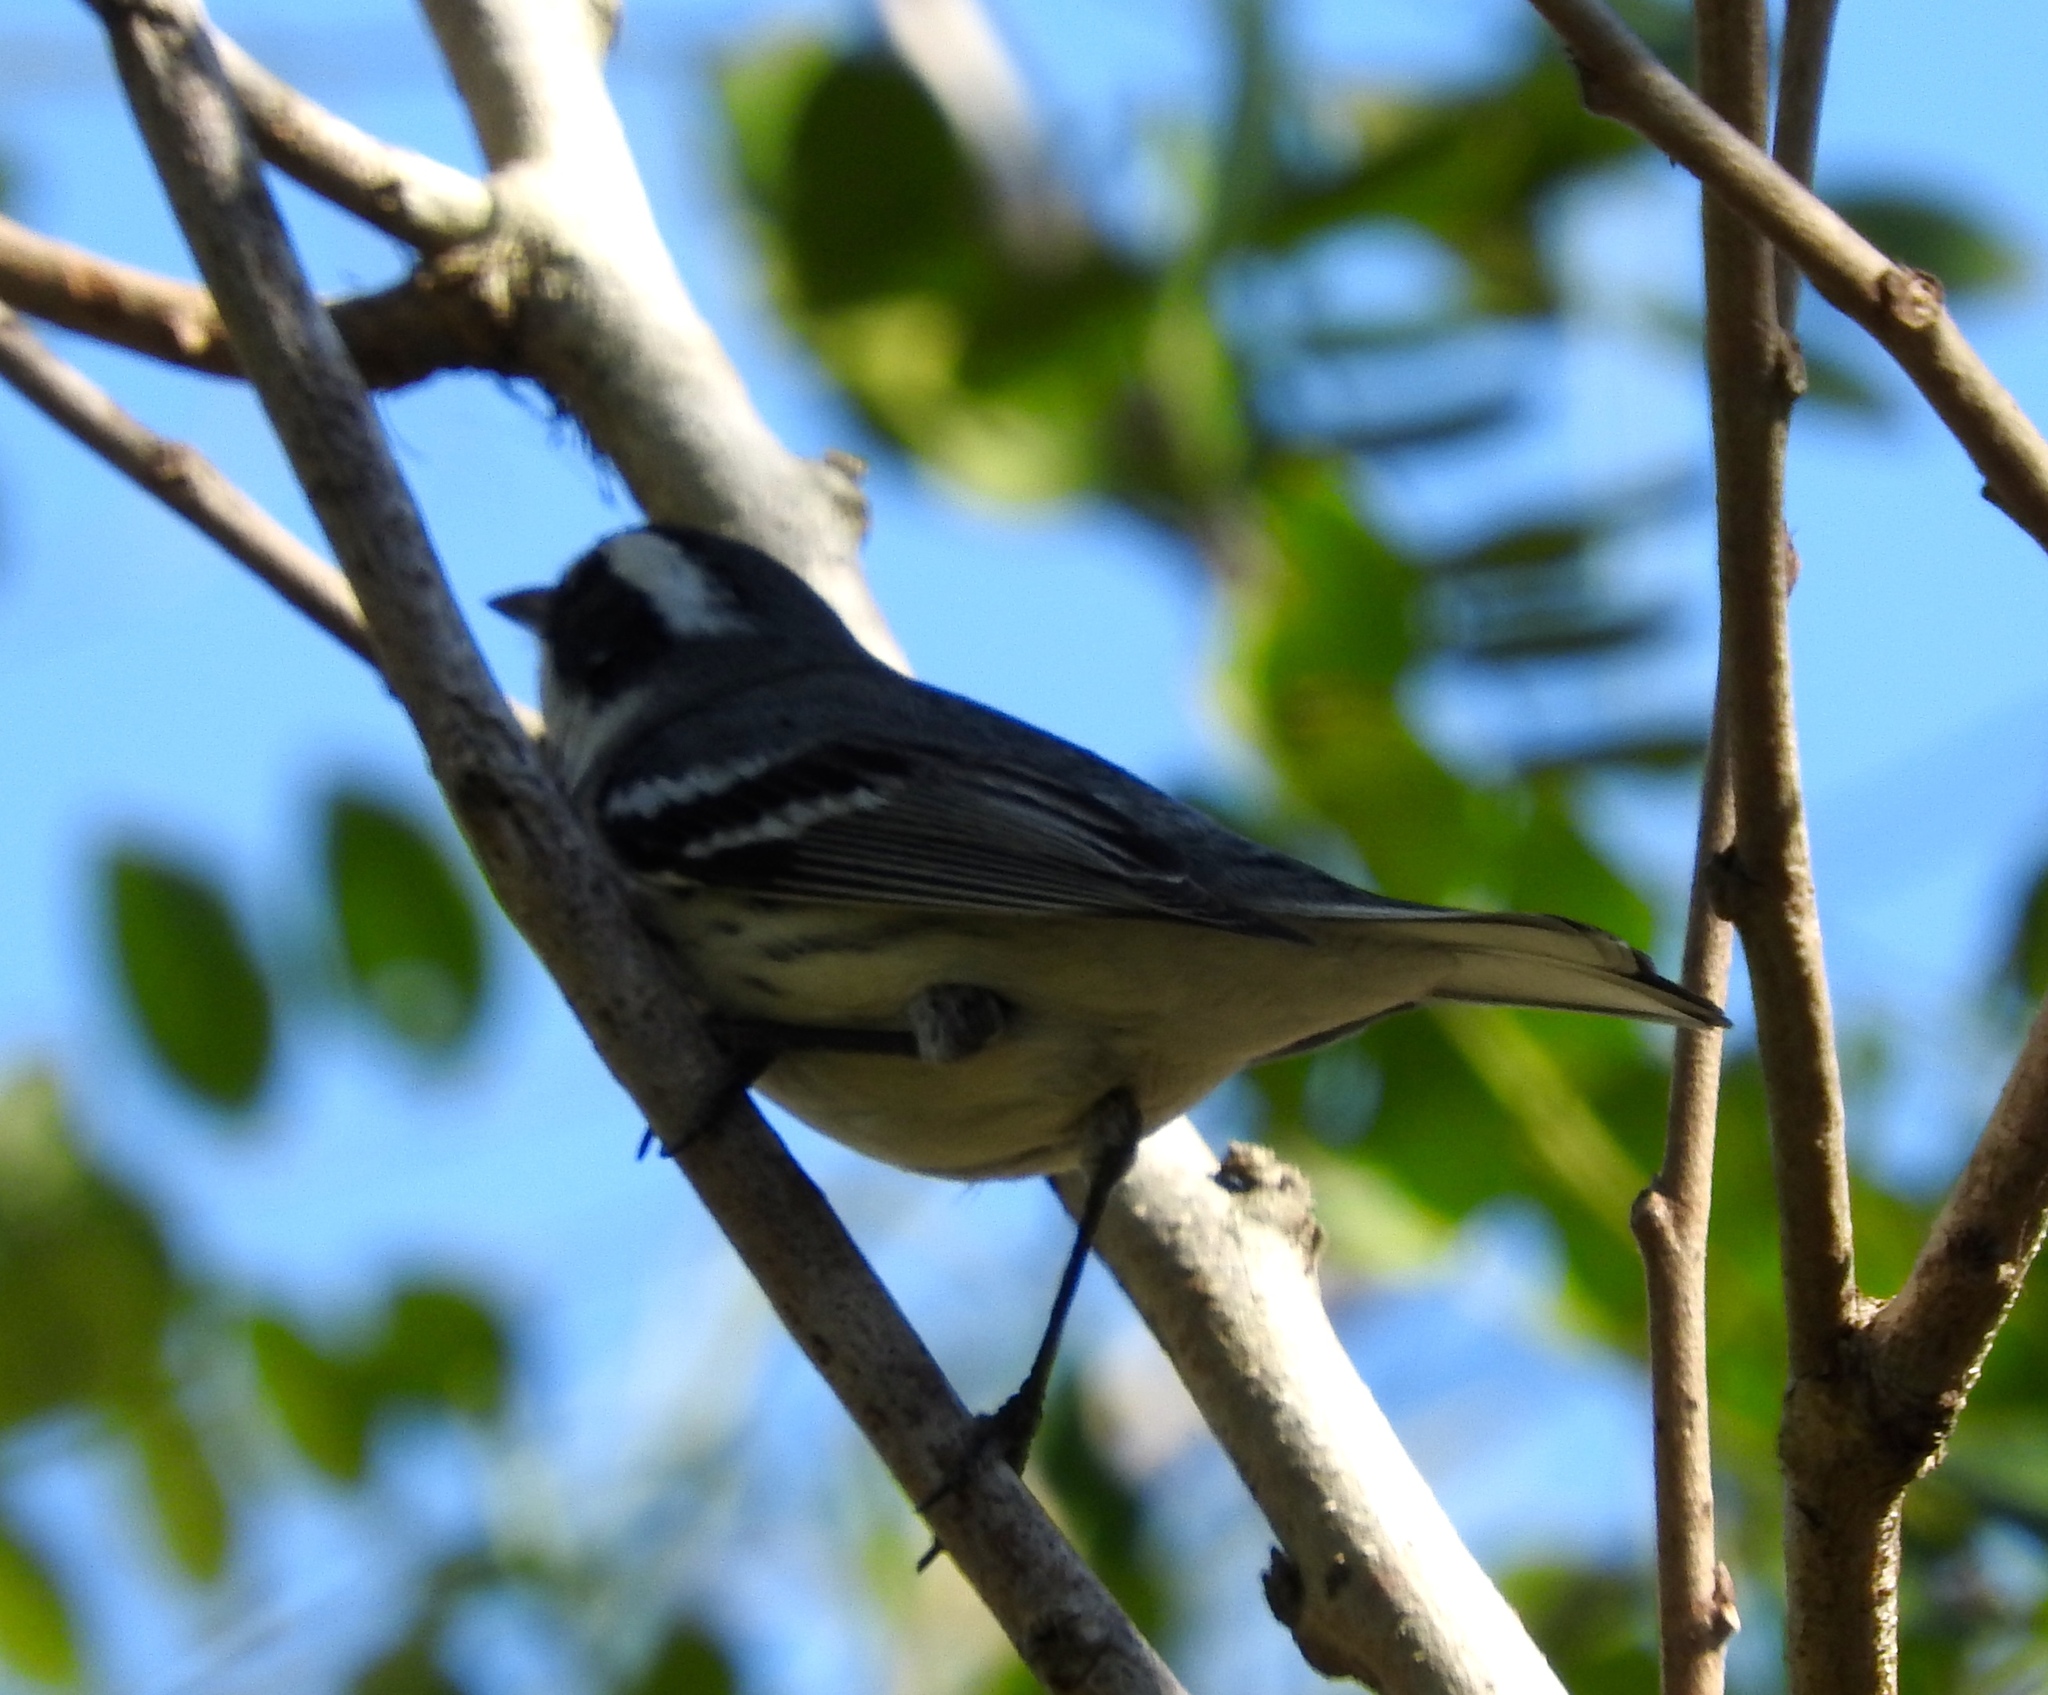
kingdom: Animalia
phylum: Chordata
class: Aves
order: Passeriformes
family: Parulidae
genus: Setophaga
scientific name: Setophaga nigrescens
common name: Black-throated gray warbler
